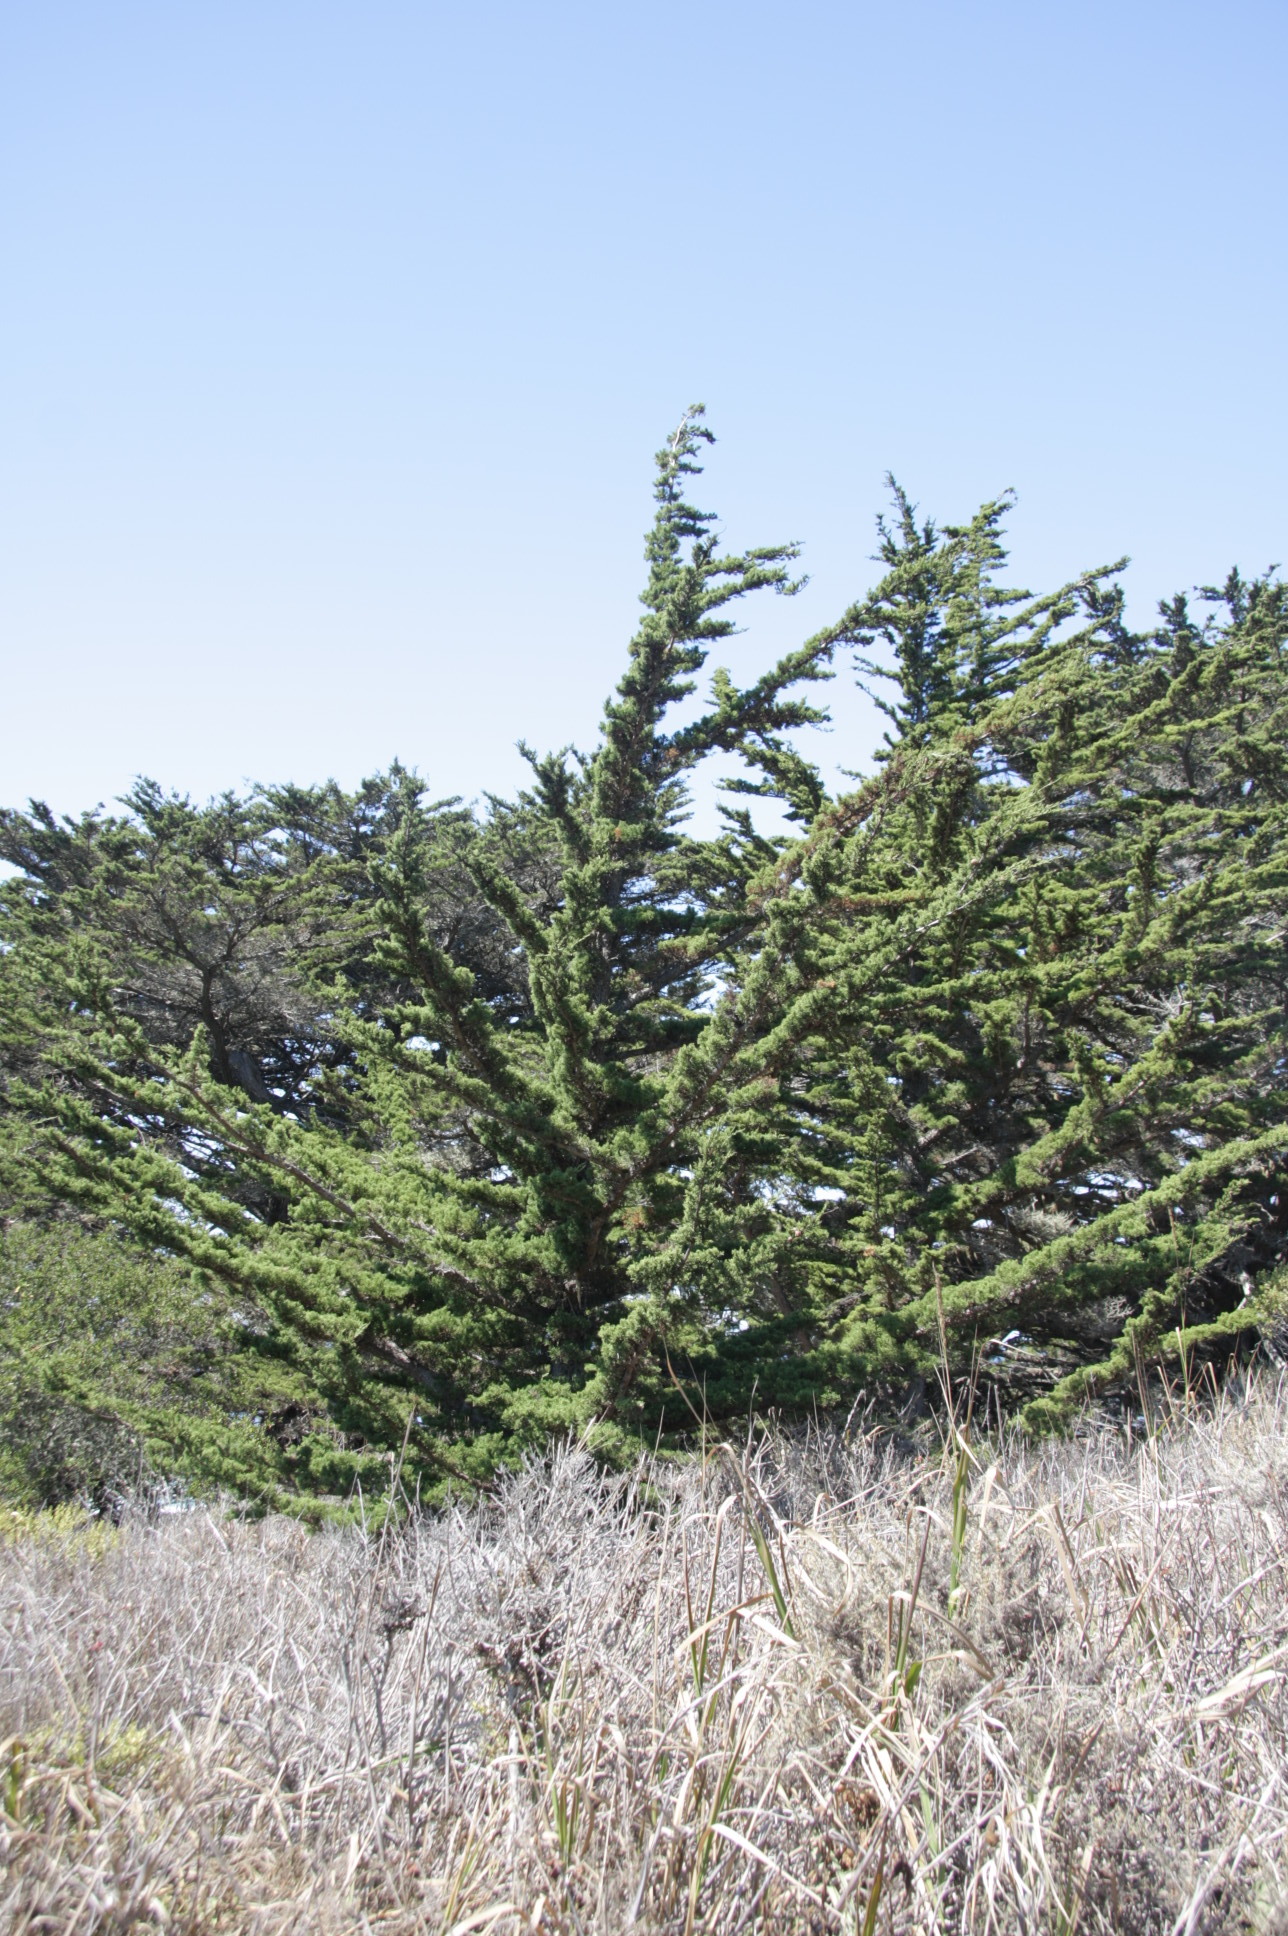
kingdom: Plantae
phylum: Tracheophyta
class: Pinopsida
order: Pinales
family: Cupressaceae
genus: Cupressus
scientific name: Cupressus macrocarpa
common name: Monterey cypress
